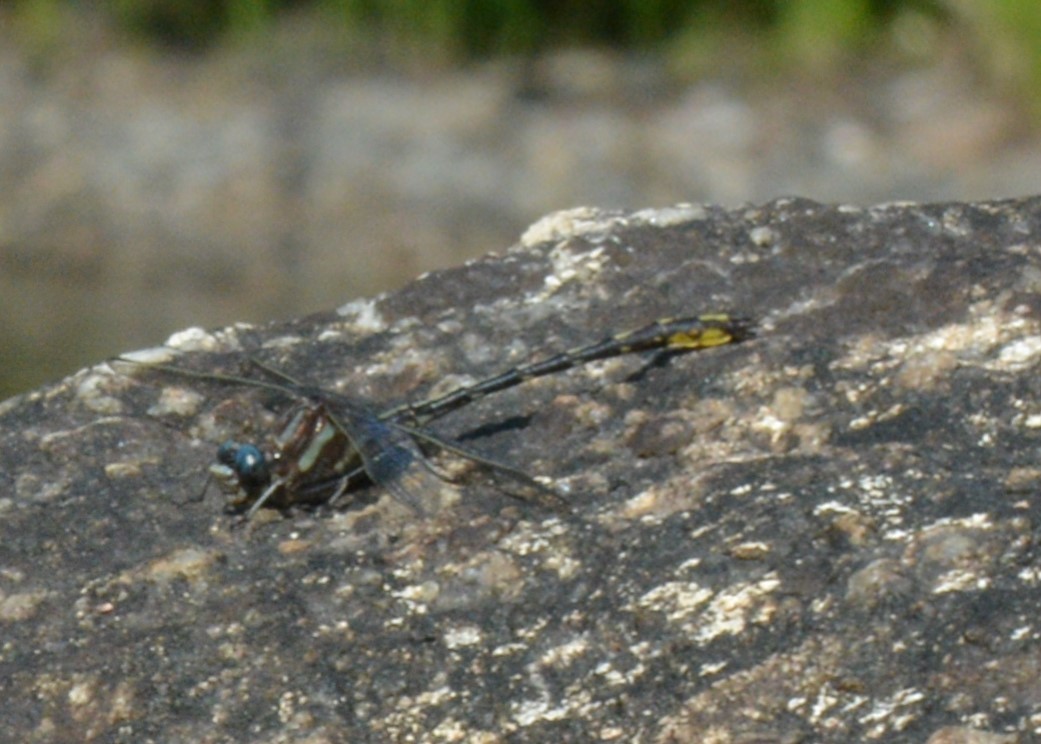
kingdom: Animalia
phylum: Arthropoda
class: Insecta
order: Odonata
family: Gomphidae
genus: Phanogomphus
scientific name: Phanogomphus exilis
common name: Lancet clubtail
